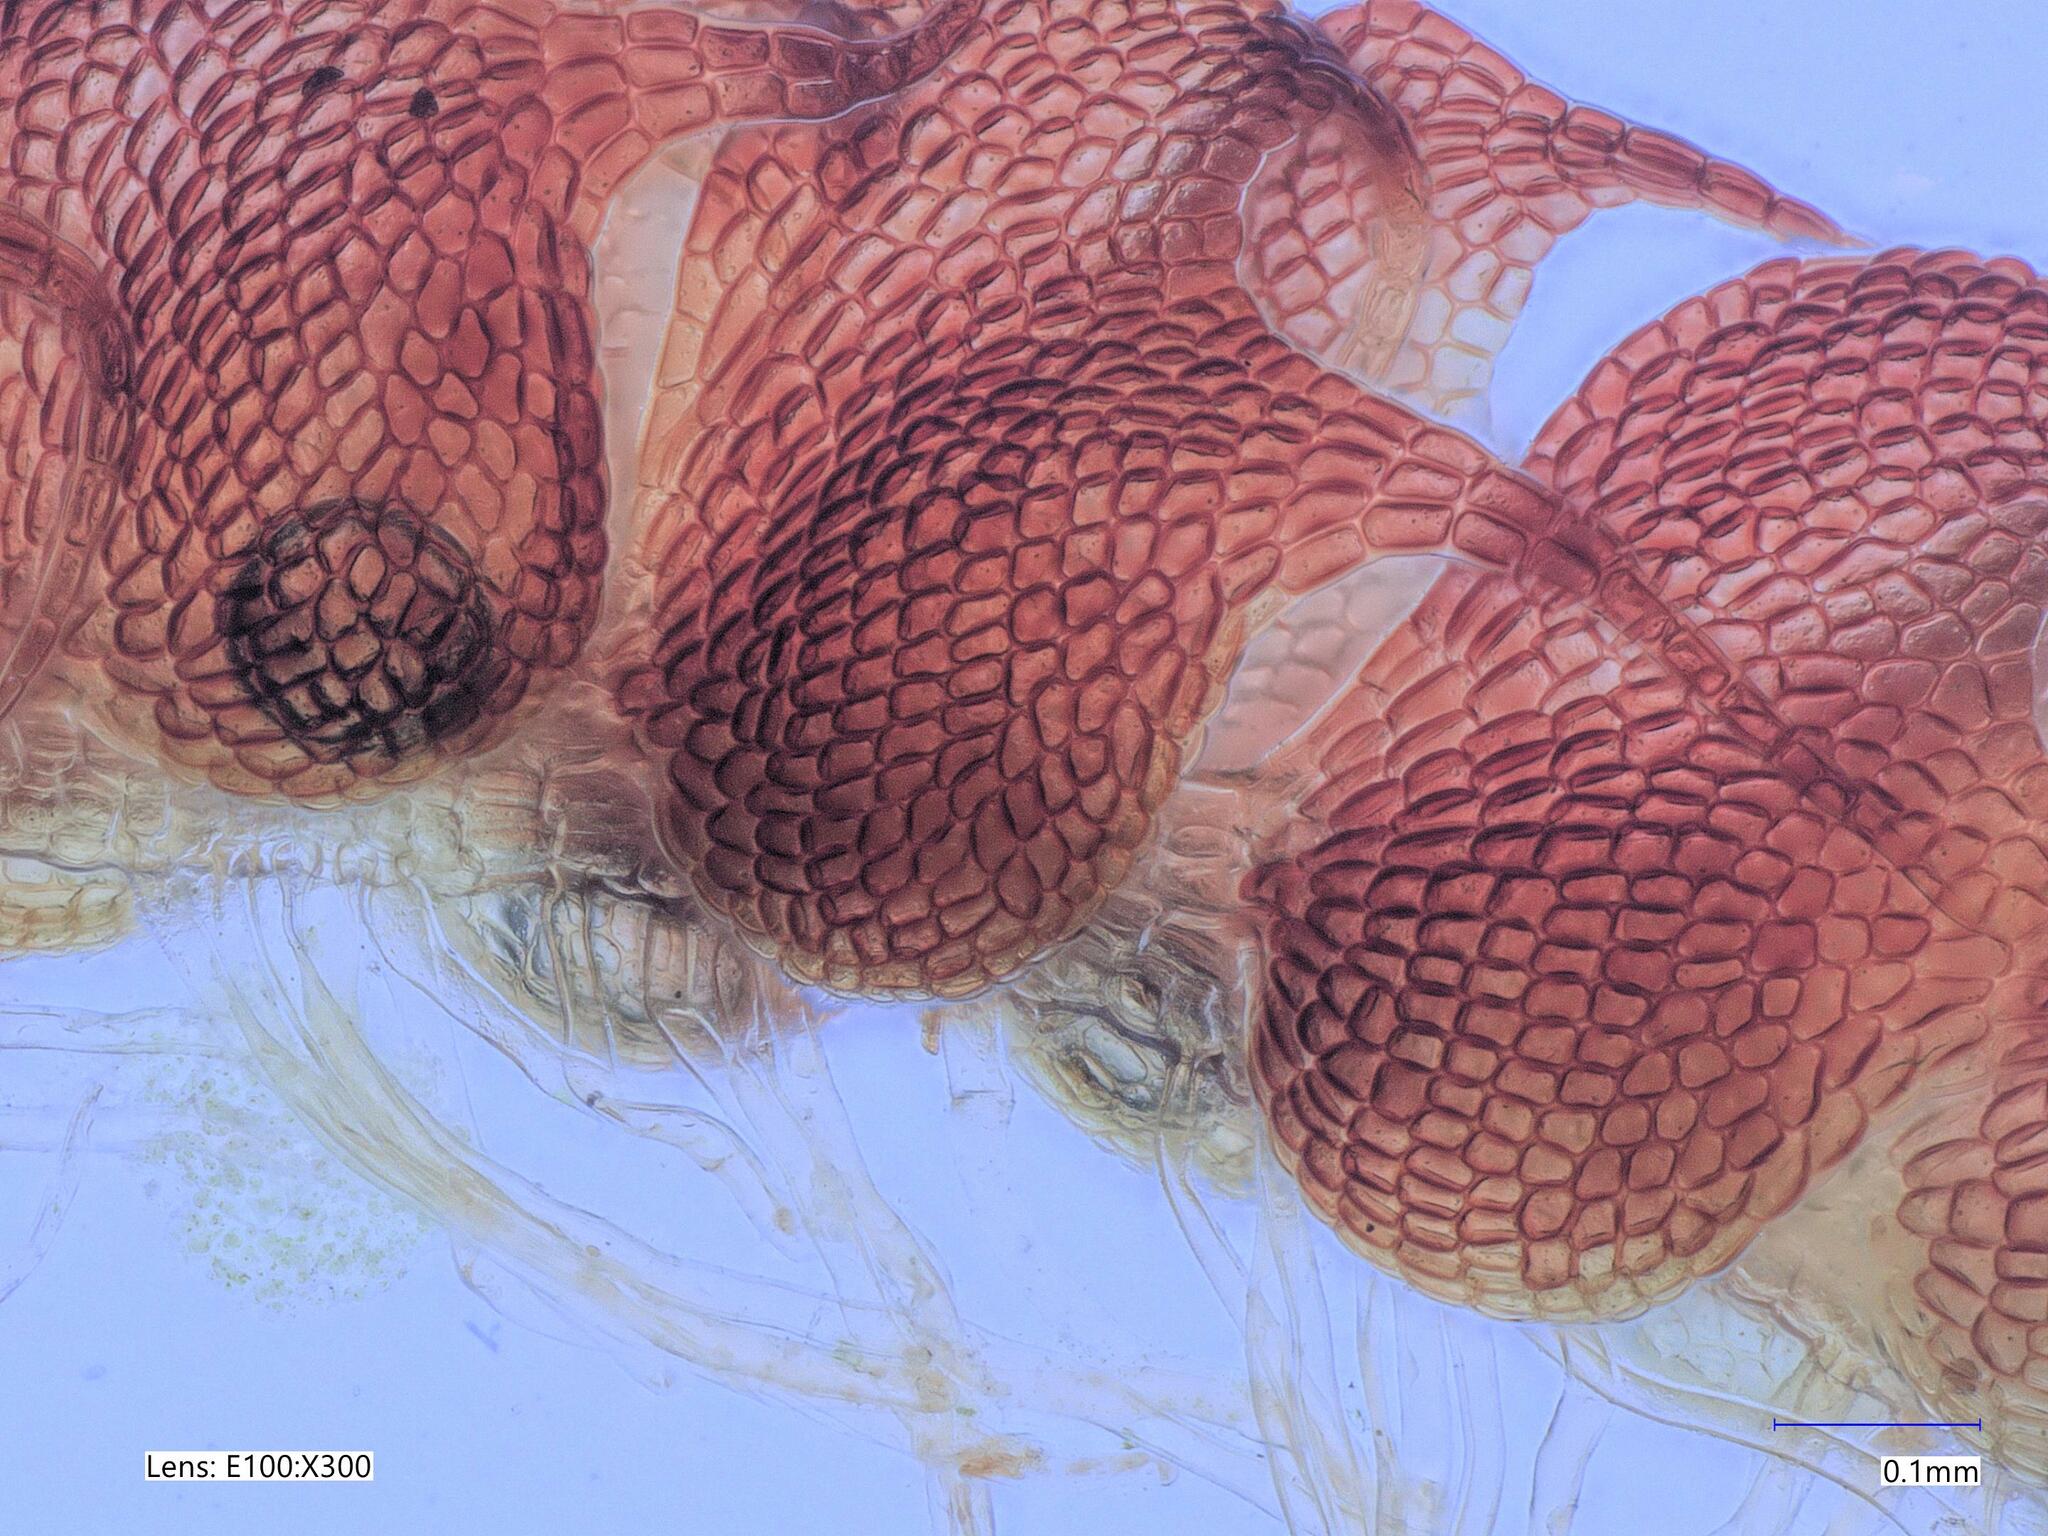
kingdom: Plantae
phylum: Marchantiophyta
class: Jungermanniopsida
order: Jungermanniales
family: Cephaloziaceae
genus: Nowellia
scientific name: Nowellia curvifolia
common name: Wood rustwort
